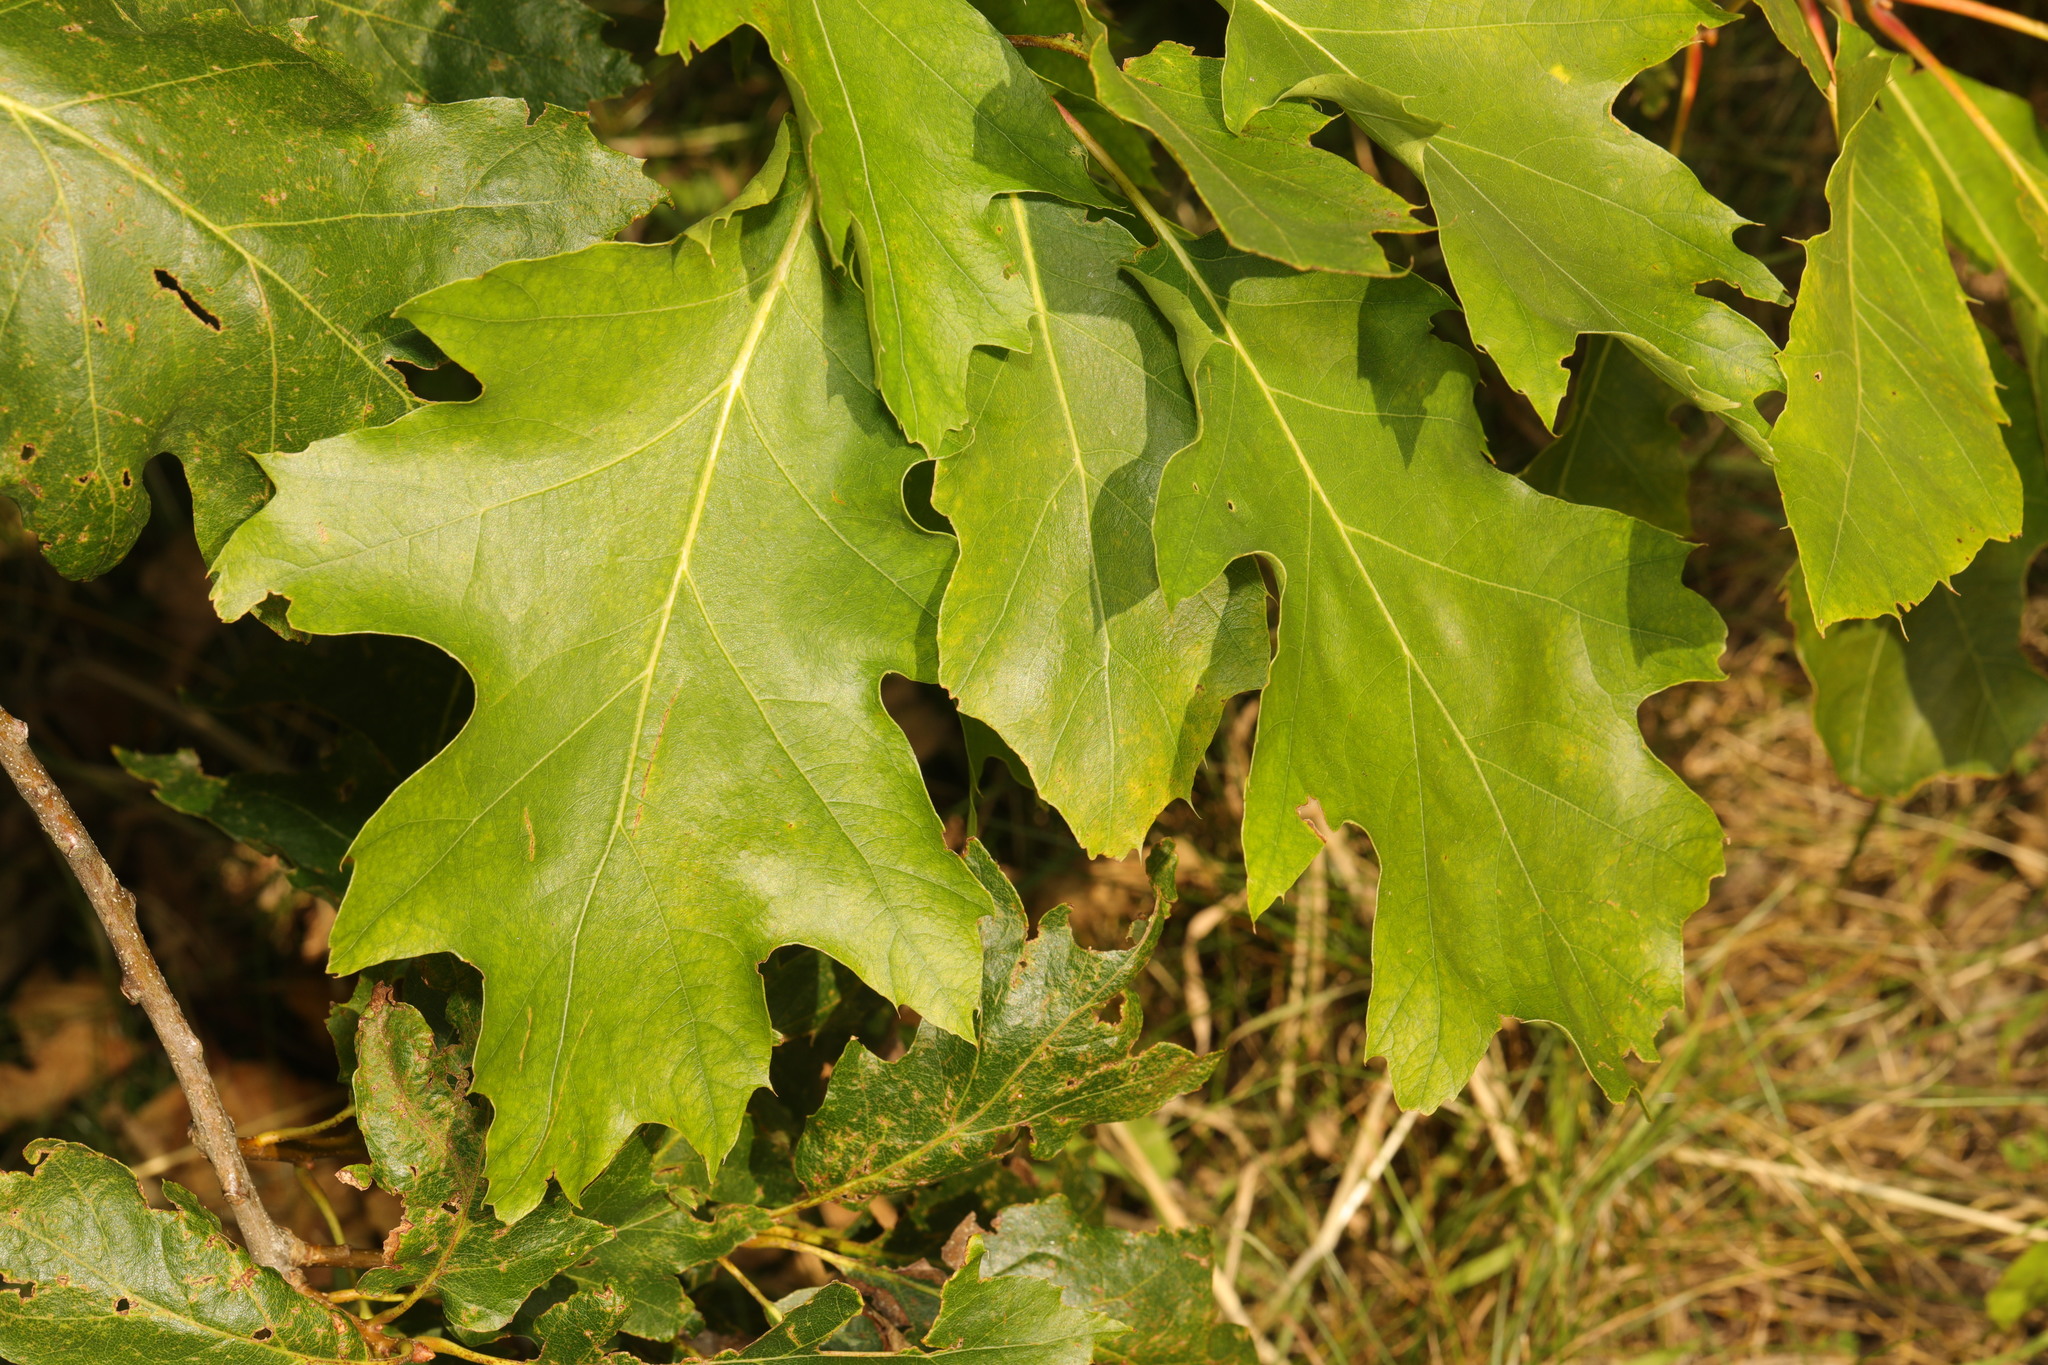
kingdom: Plantae
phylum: Tracheophyta
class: Magnoliopsida
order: Fagales
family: Fagaceae
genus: Quercus
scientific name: Quercus rubra
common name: Red oak
